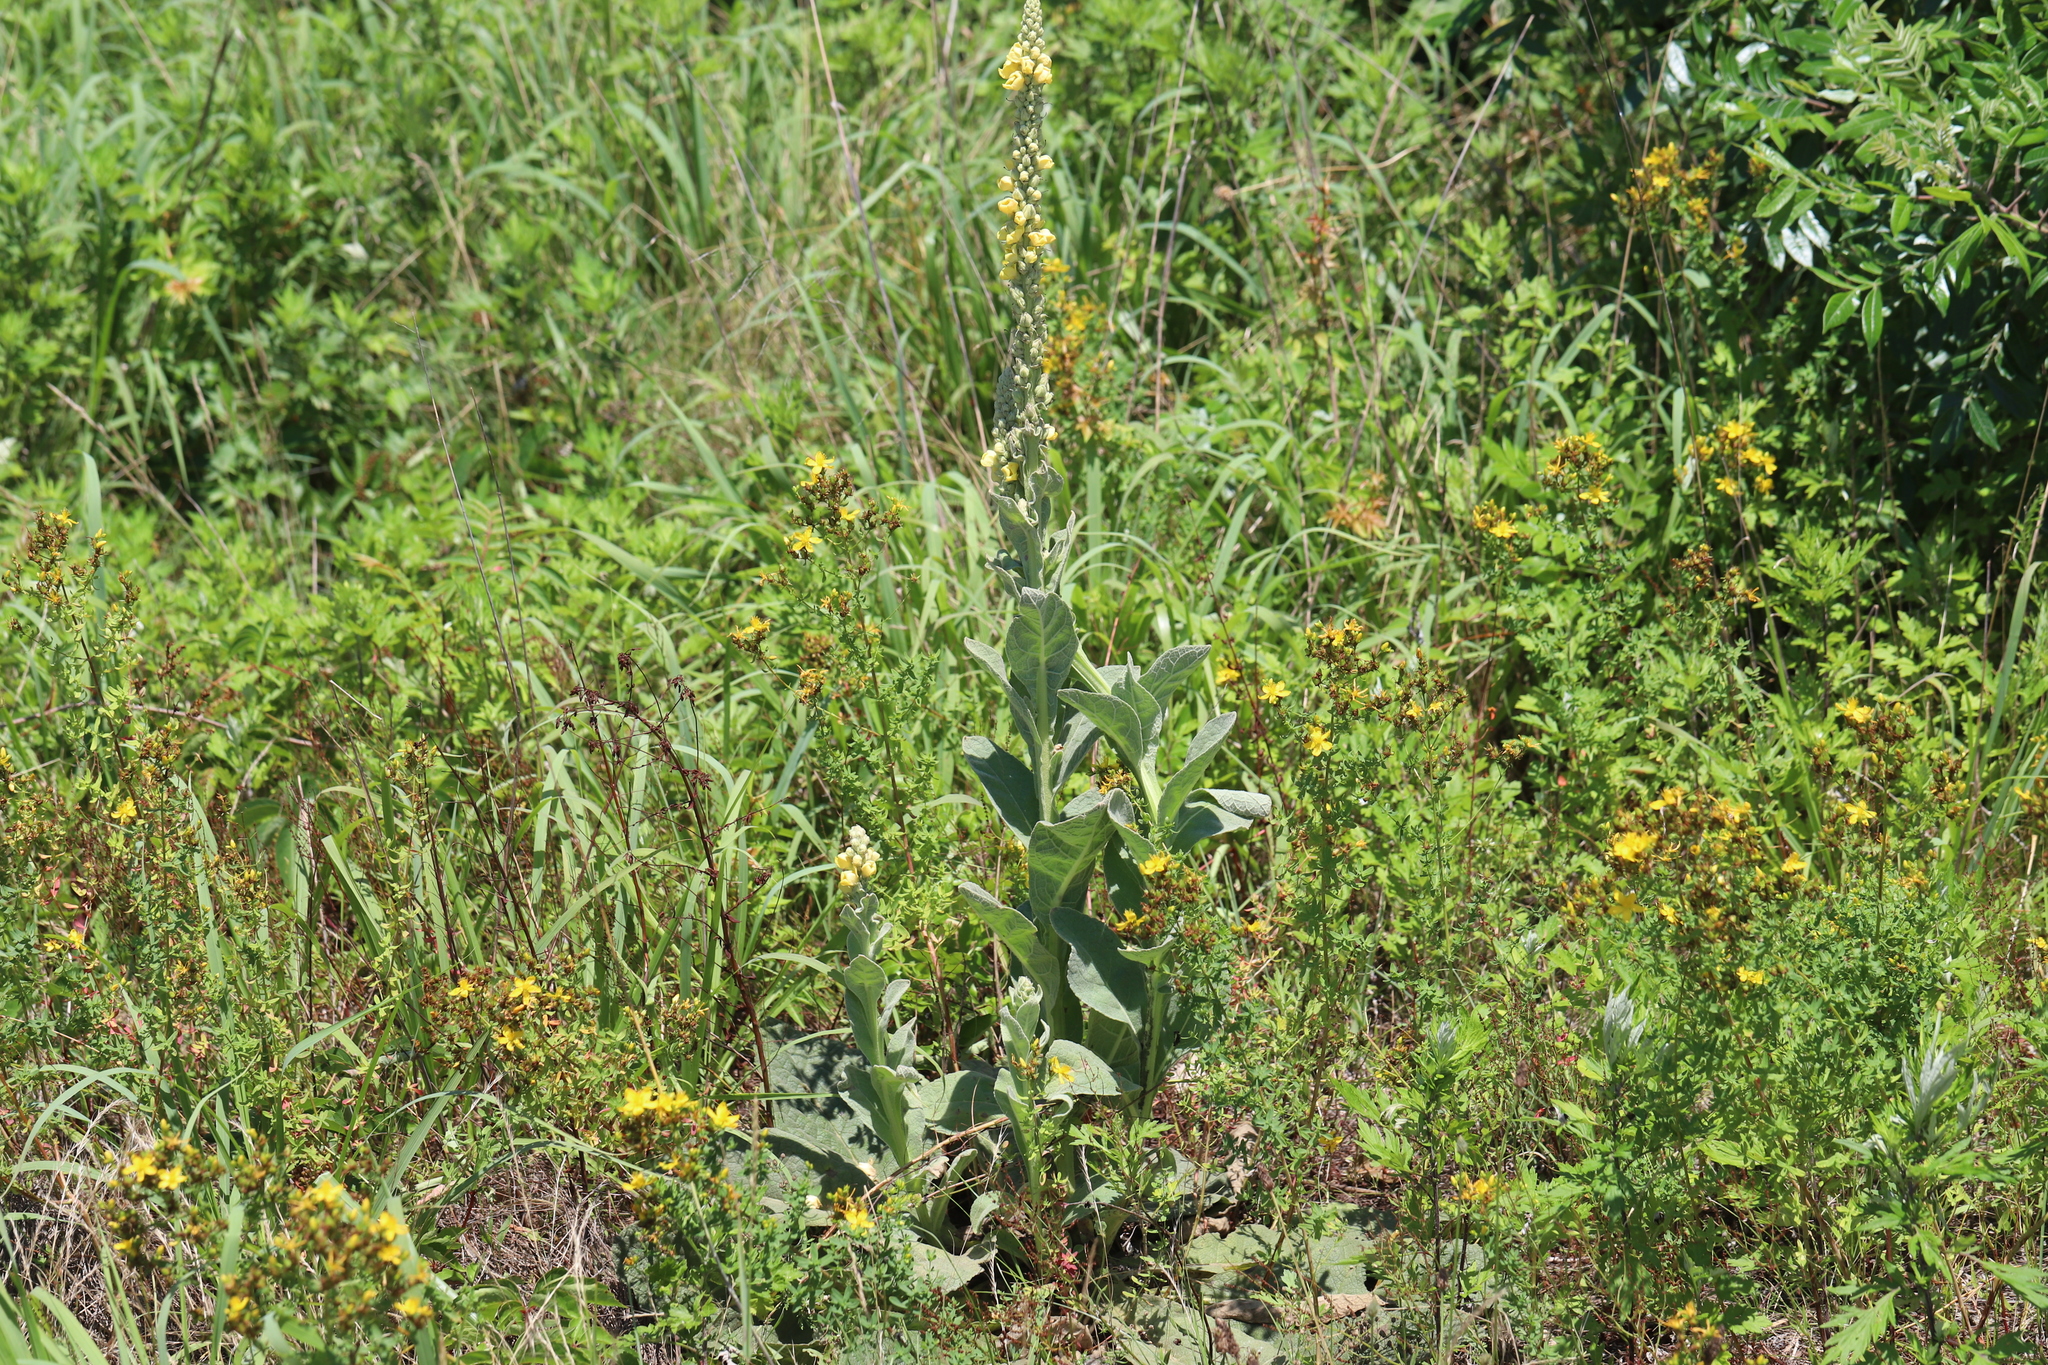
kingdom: Plantae
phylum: Tracheophyta
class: Magnoliopsida
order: Lamiales
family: Scrophulariaceae
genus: Verbascum
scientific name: Verbascum thapsus
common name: Common mullein
